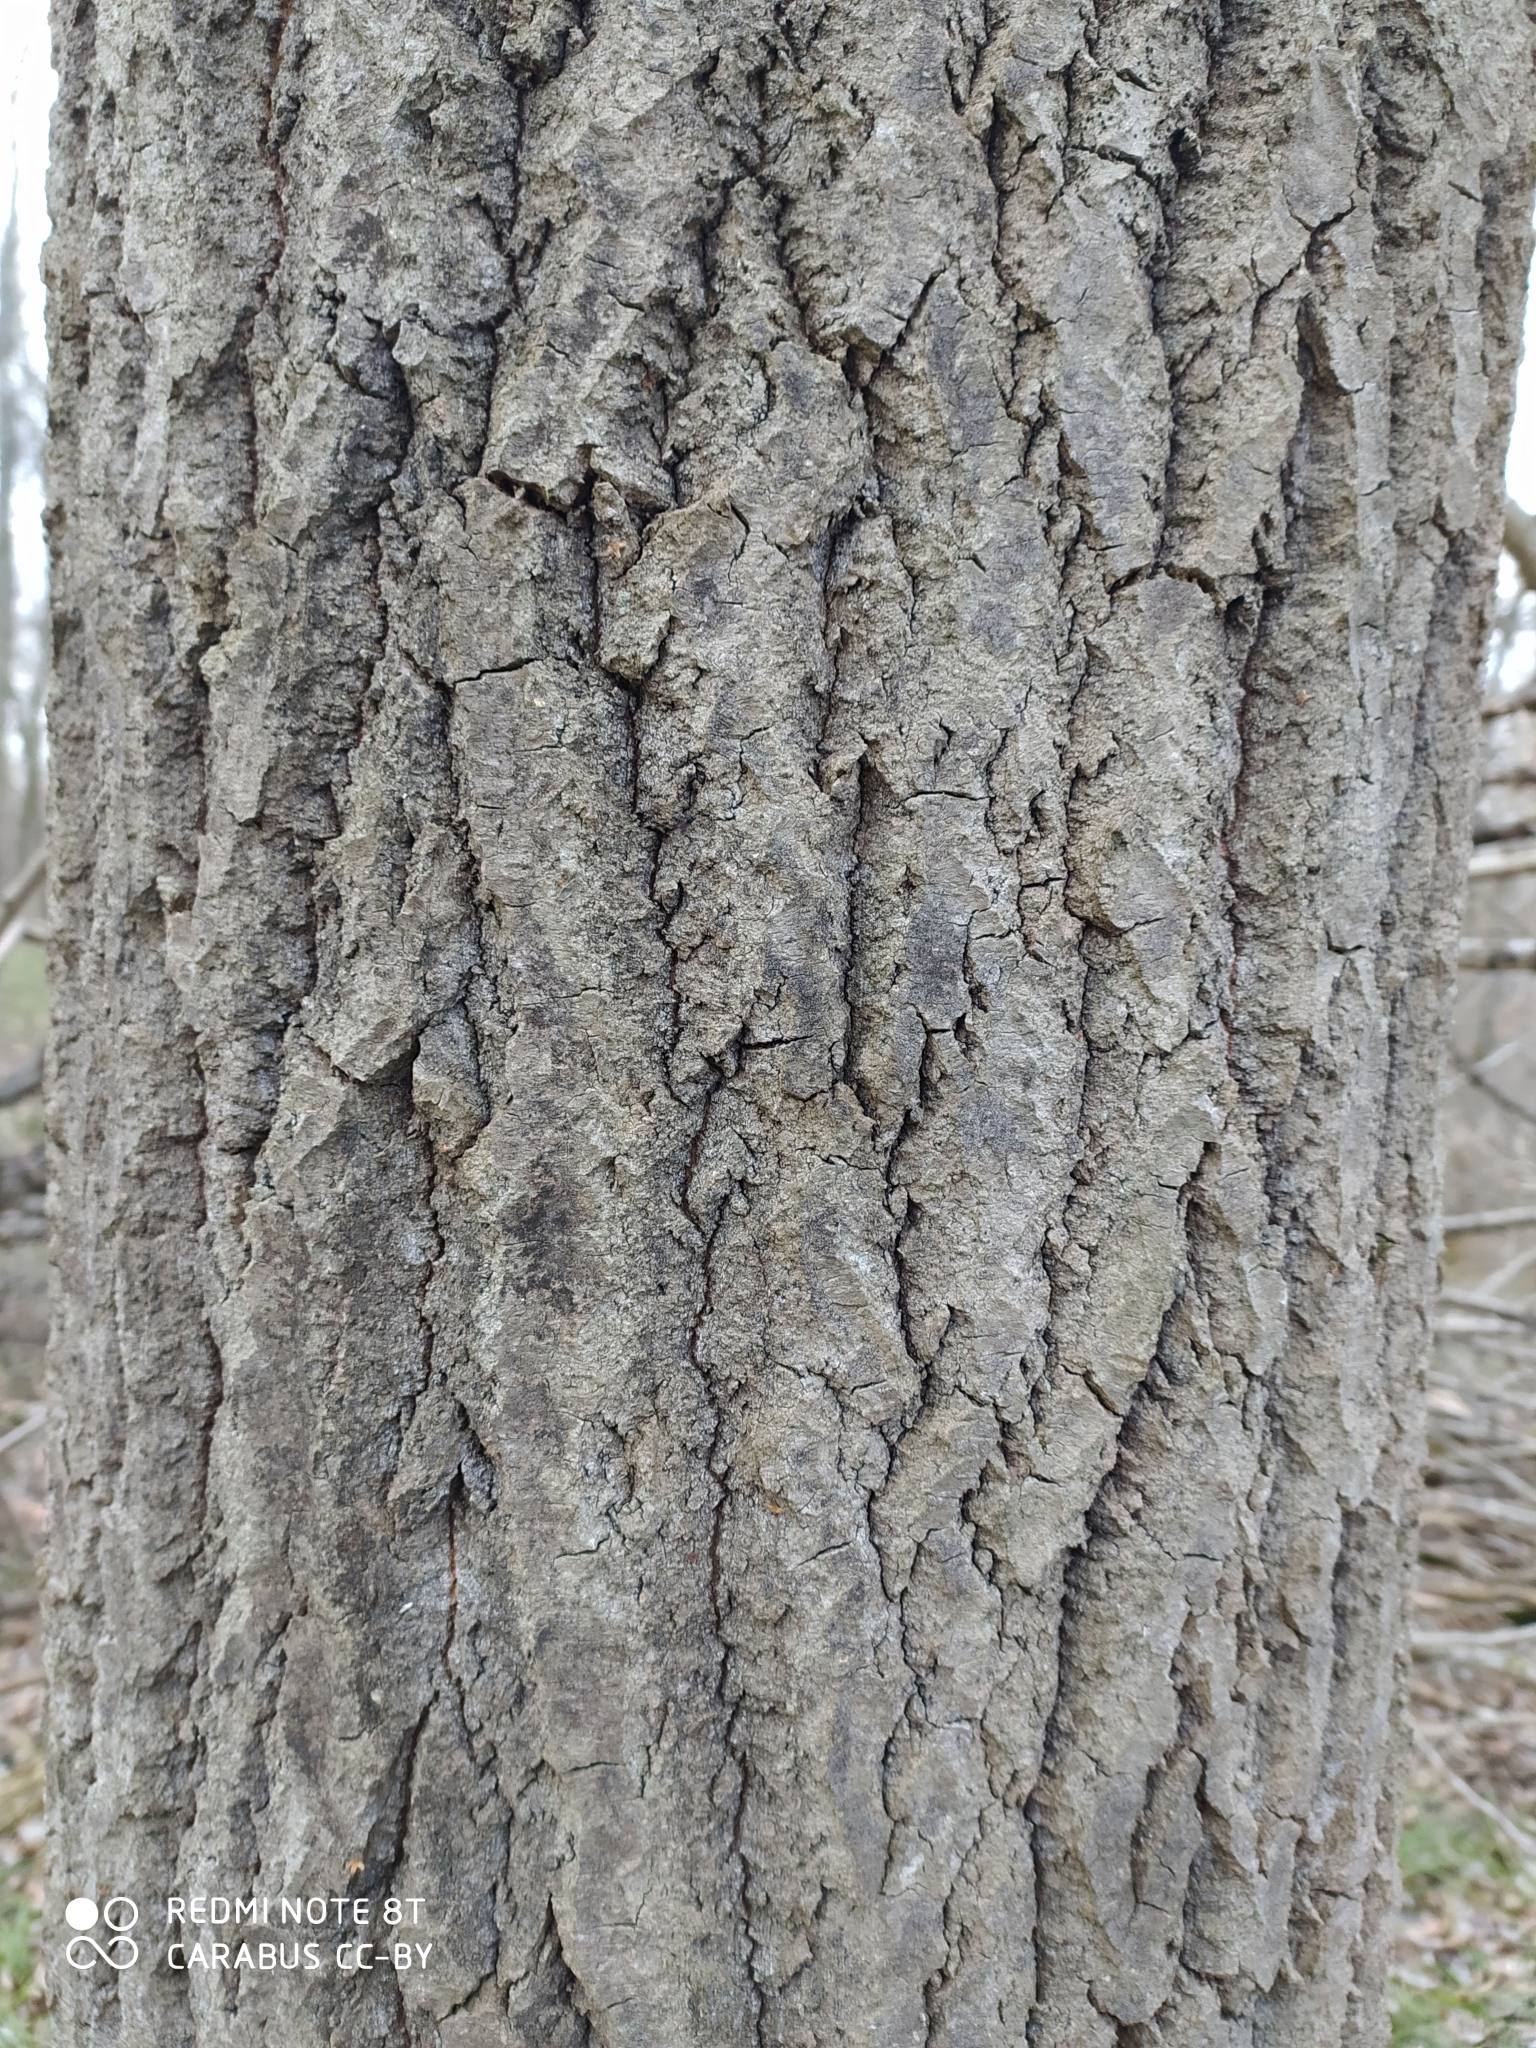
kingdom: Plantae
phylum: Tracheophyta
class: Magnoliopsida
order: Malpighiales
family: Salicaceae
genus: Populus
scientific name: Populus tremula
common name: European aspen
